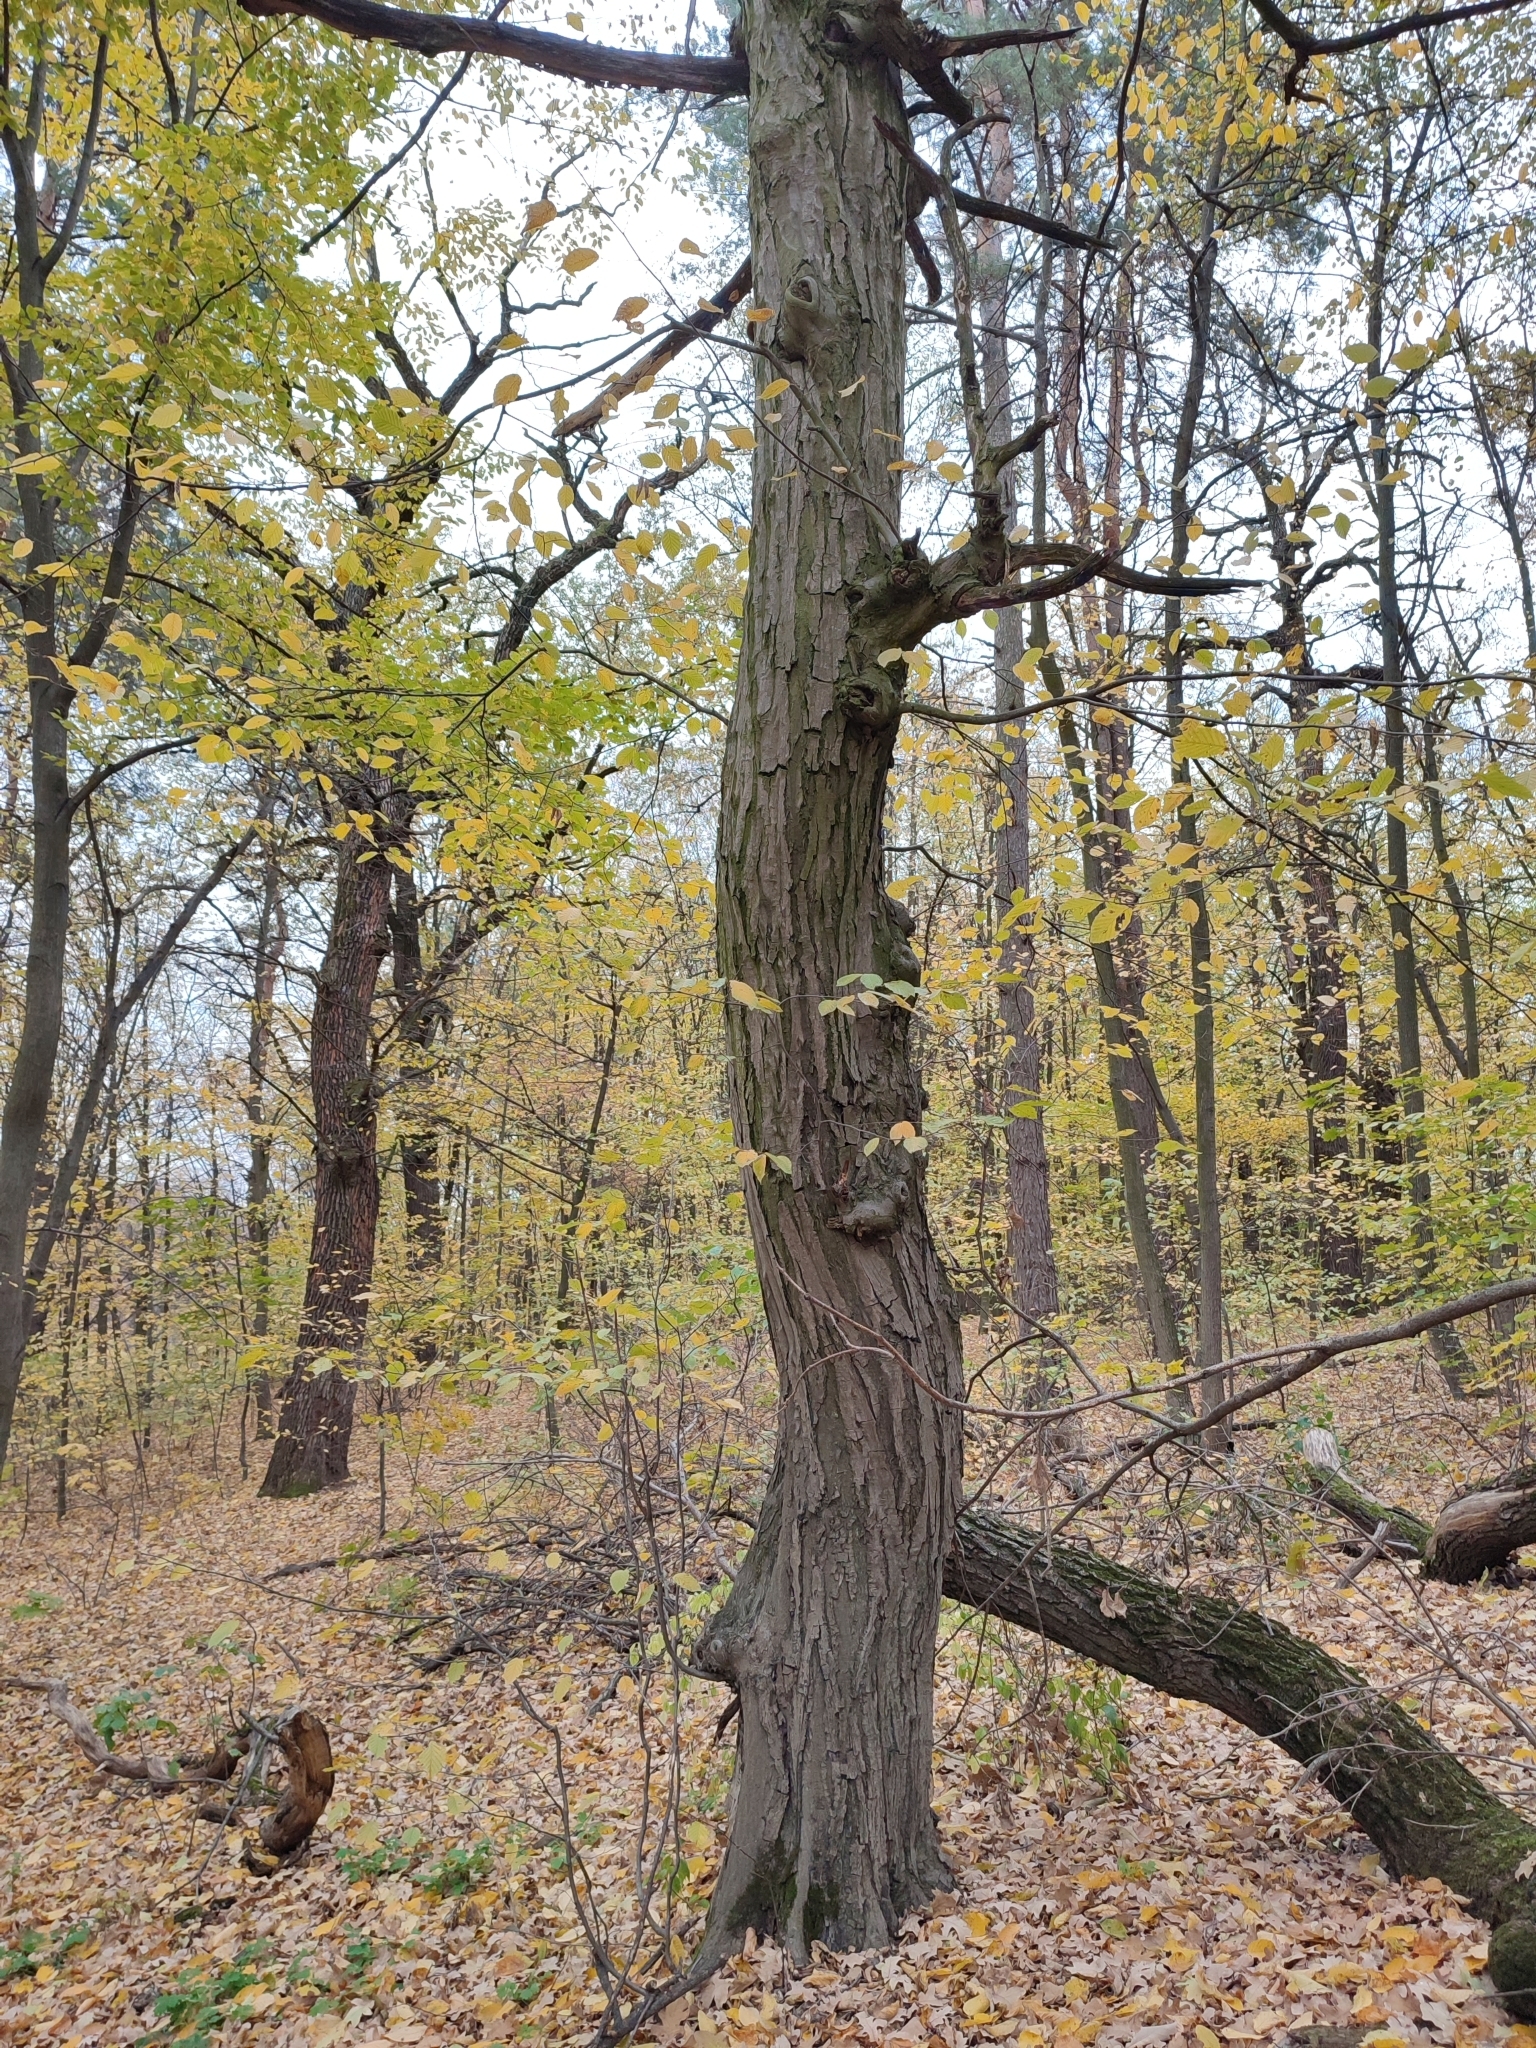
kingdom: Plantae
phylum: Tracheophyta
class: Magnoliopsida
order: Fagales
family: Betulaceae
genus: Carpinus
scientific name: Carpinus betulus
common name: Hornbeam
